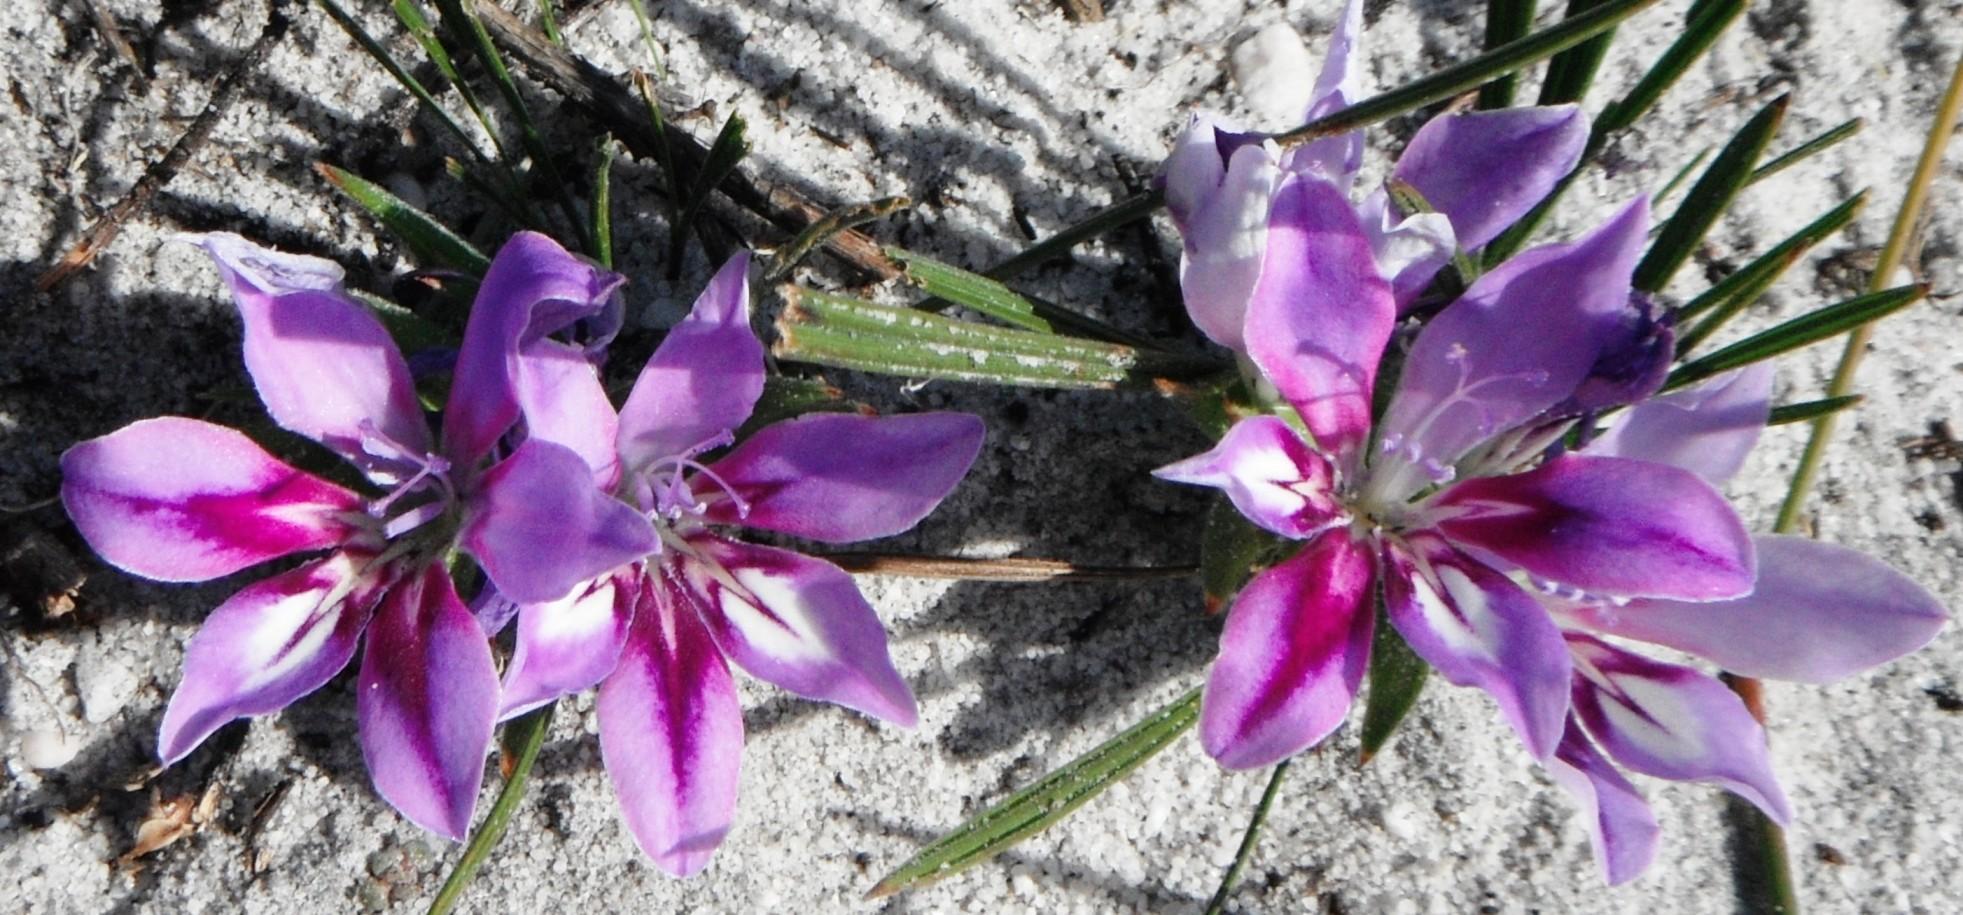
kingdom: Plantae
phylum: Tracheophyta
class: Liliopsida
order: Asparagales
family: Iridaceae
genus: Babiana
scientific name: Babiana ambigua
